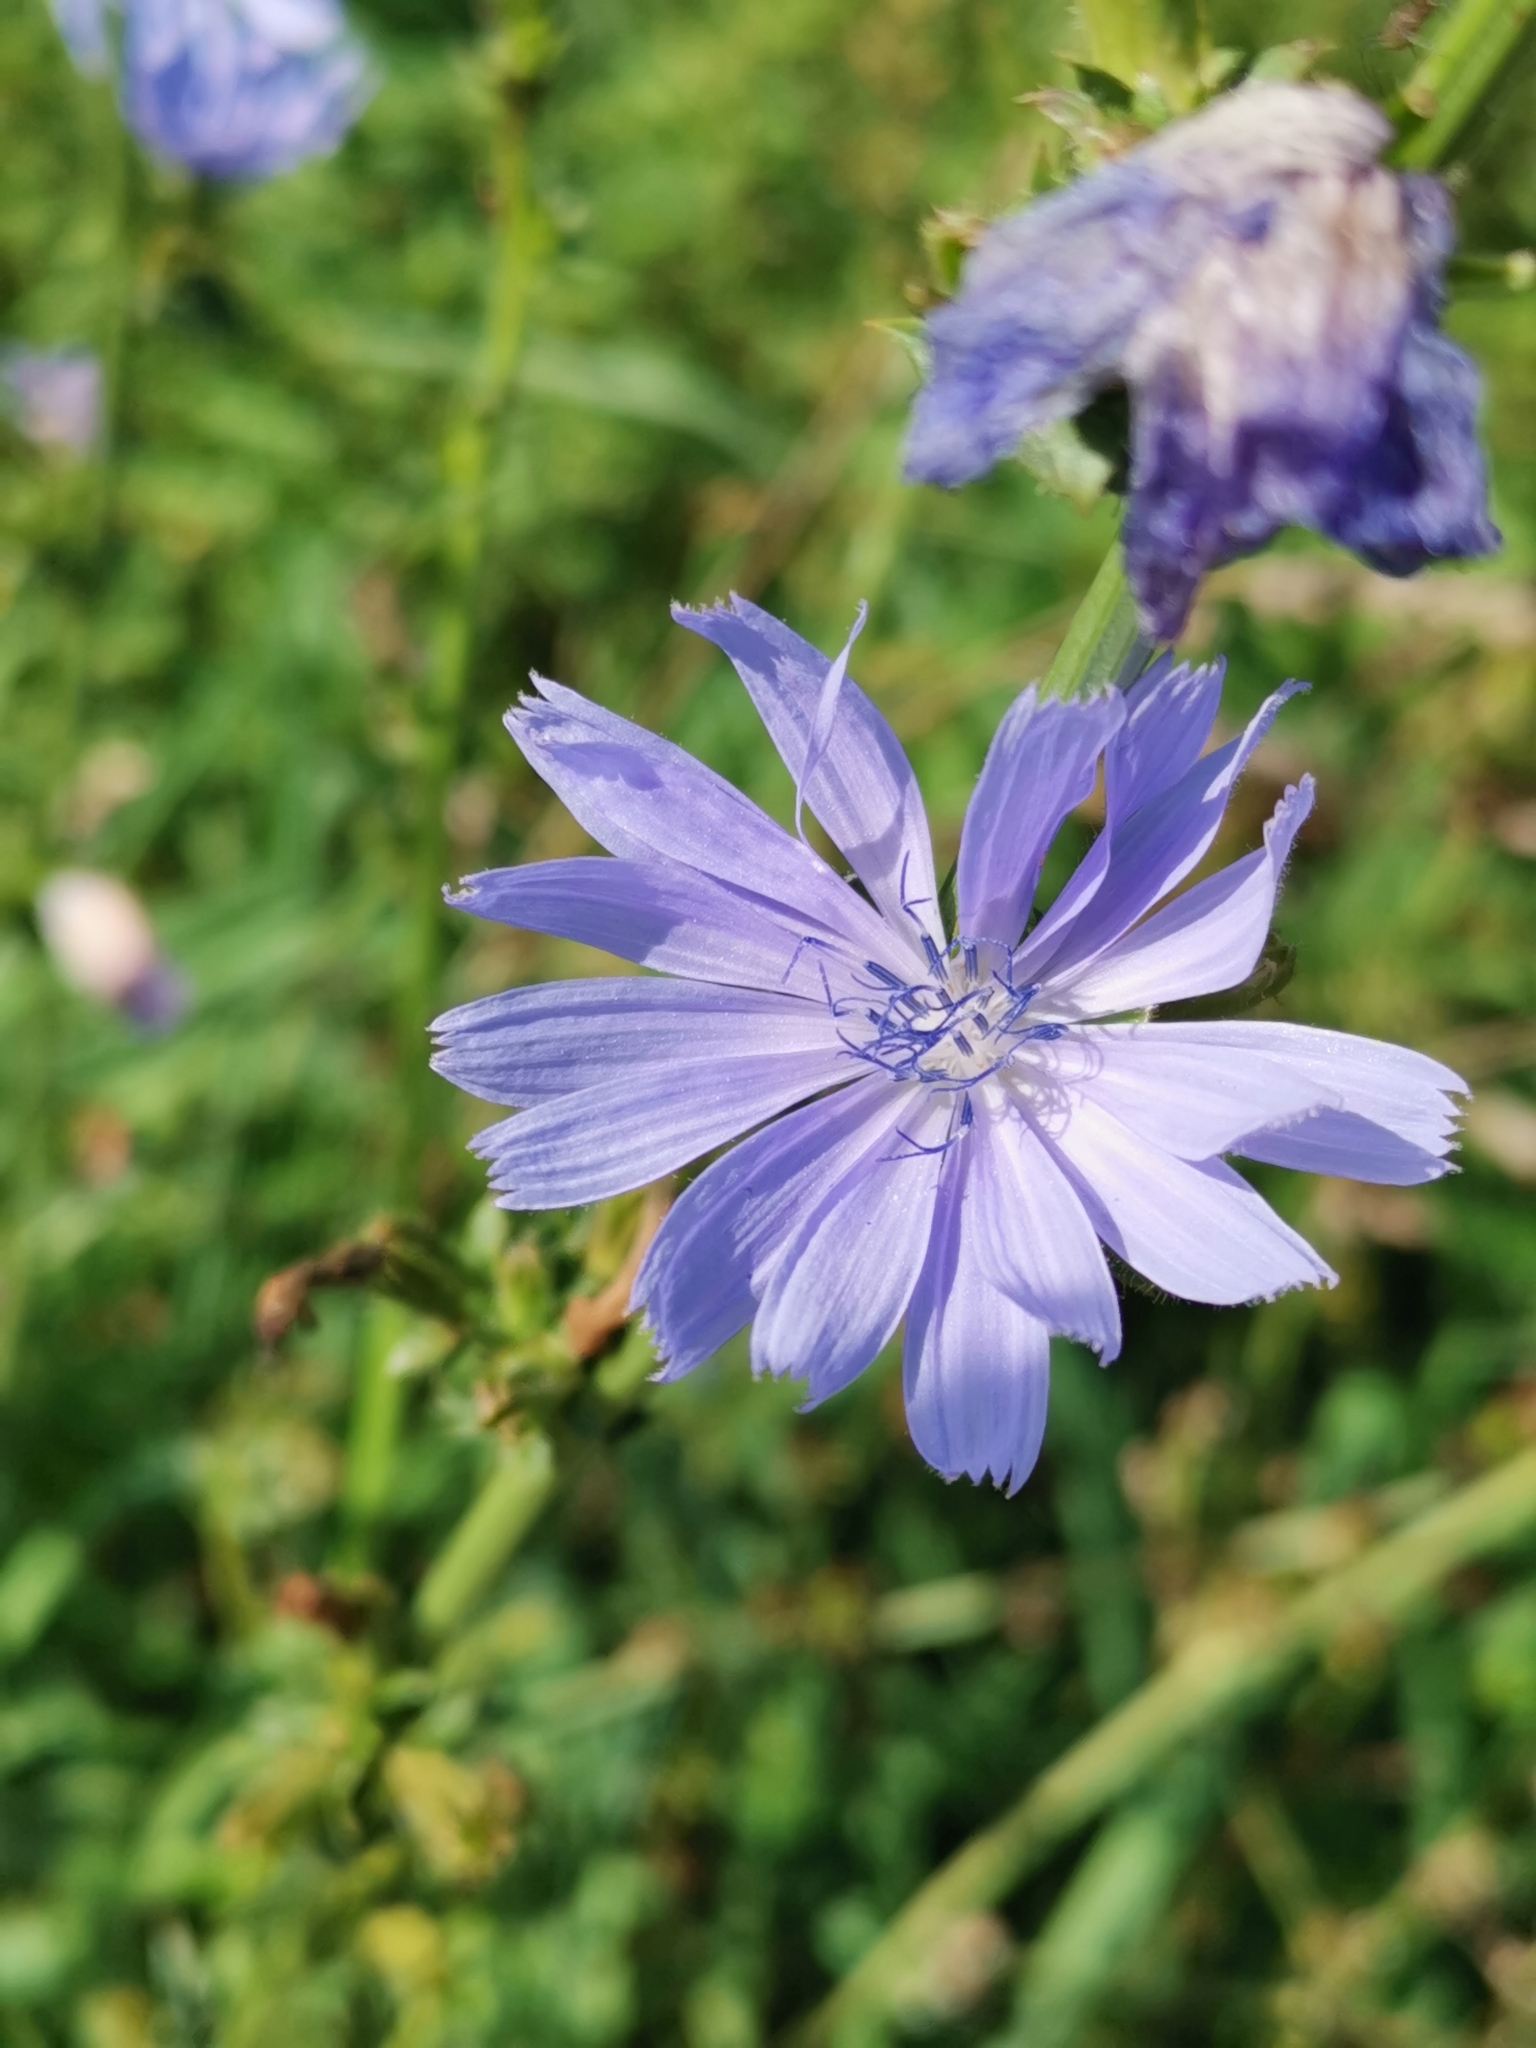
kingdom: Plantae
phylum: Tracheophyta
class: Magnoliopsida
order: Asterales
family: Asteraceae
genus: Cichorium
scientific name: Cichorium intybus
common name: Chicory
